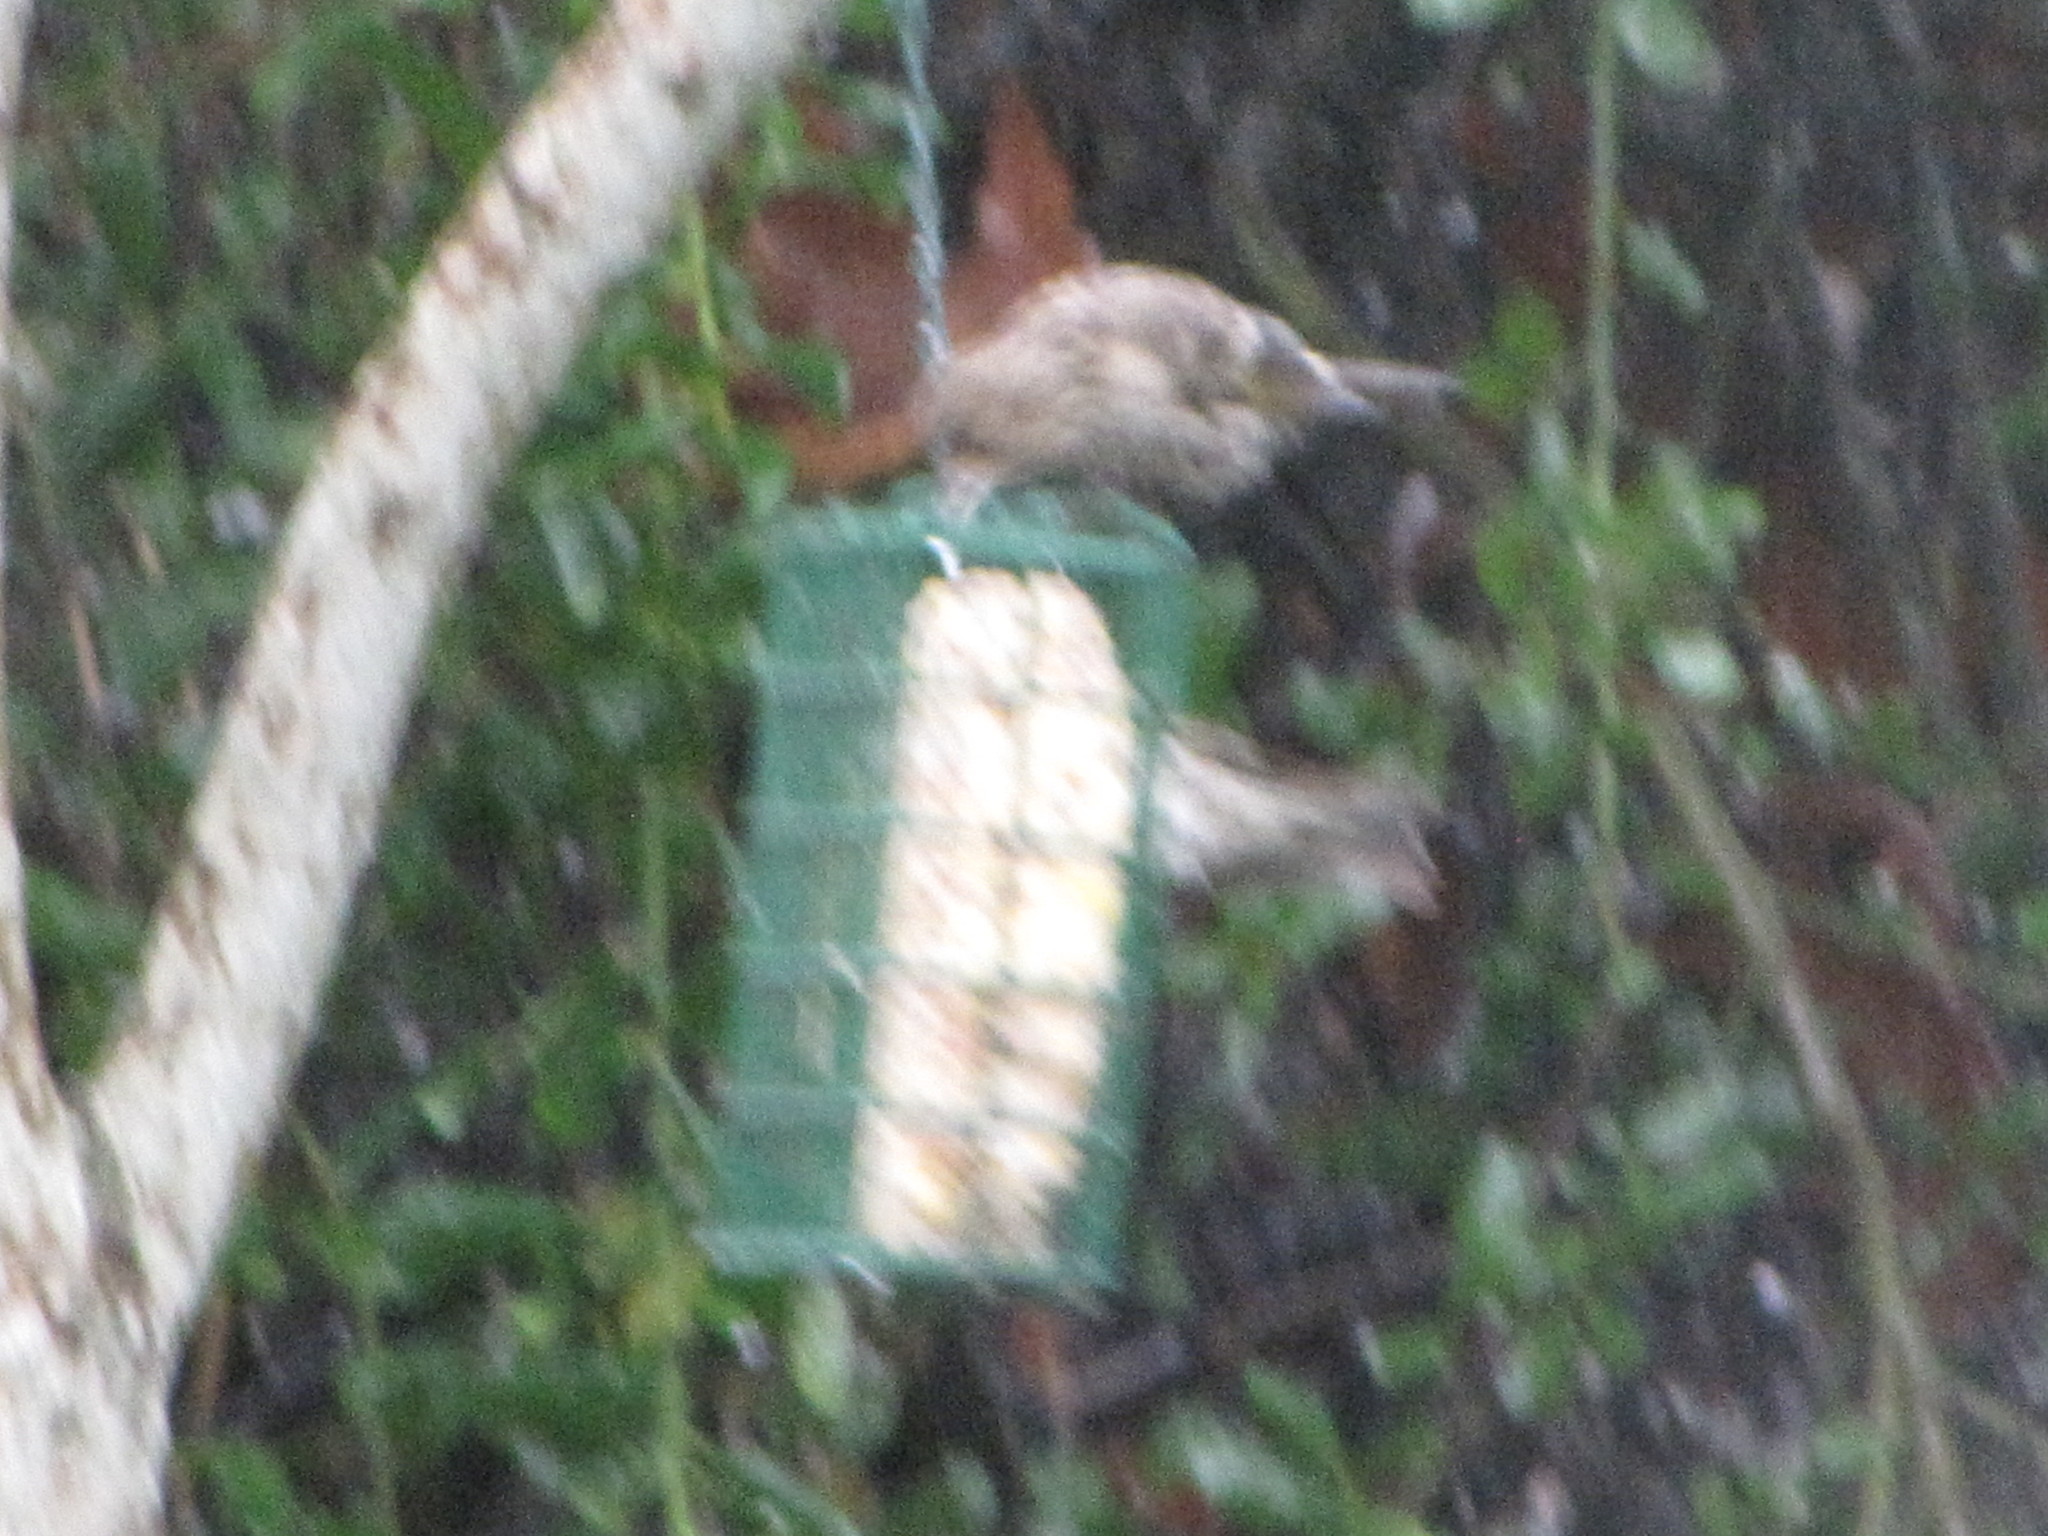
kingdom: Animalia
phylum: Chordata
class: Aves
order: Passeriformes
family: Fringillidae
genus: Spinus
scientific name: Spinus pinus
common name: Pine siskin
